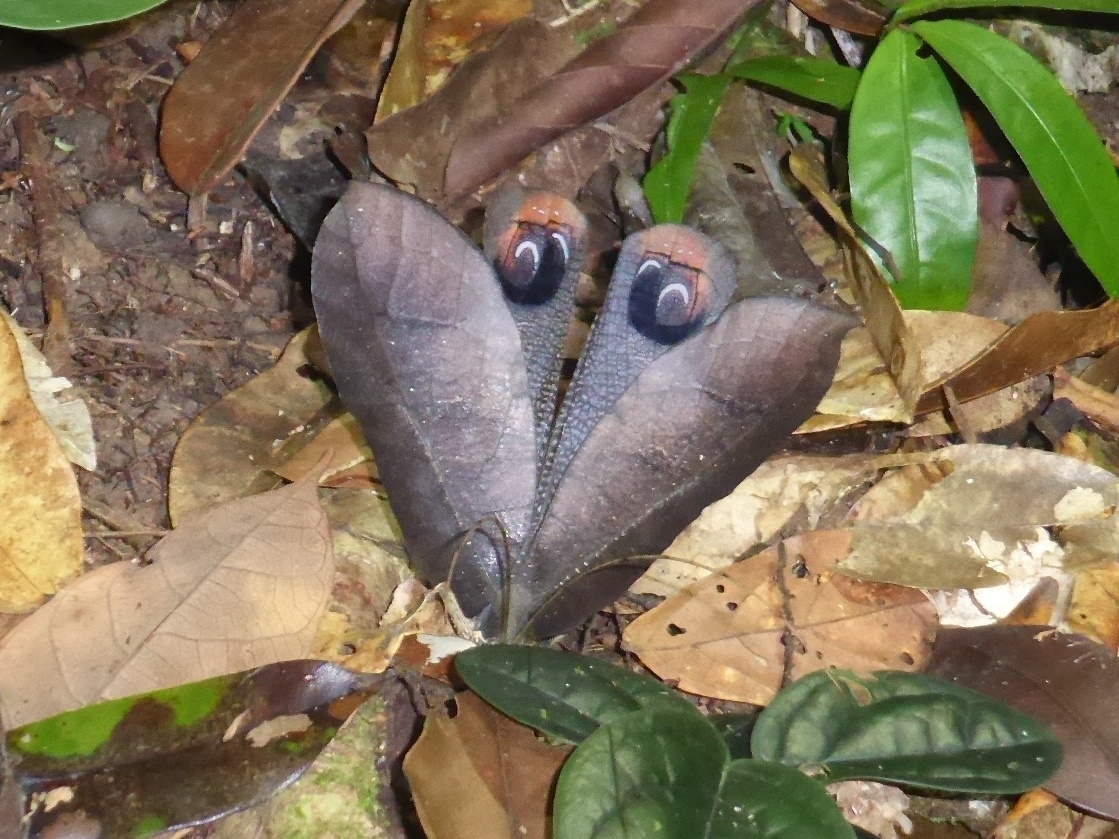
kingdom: Animalia
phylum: Arthropoda
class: Insecta
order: Orthoptera
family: Tettigoniidae
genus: Pterochroza
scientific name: Pterochroza ocellata
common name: Peacock katydid
